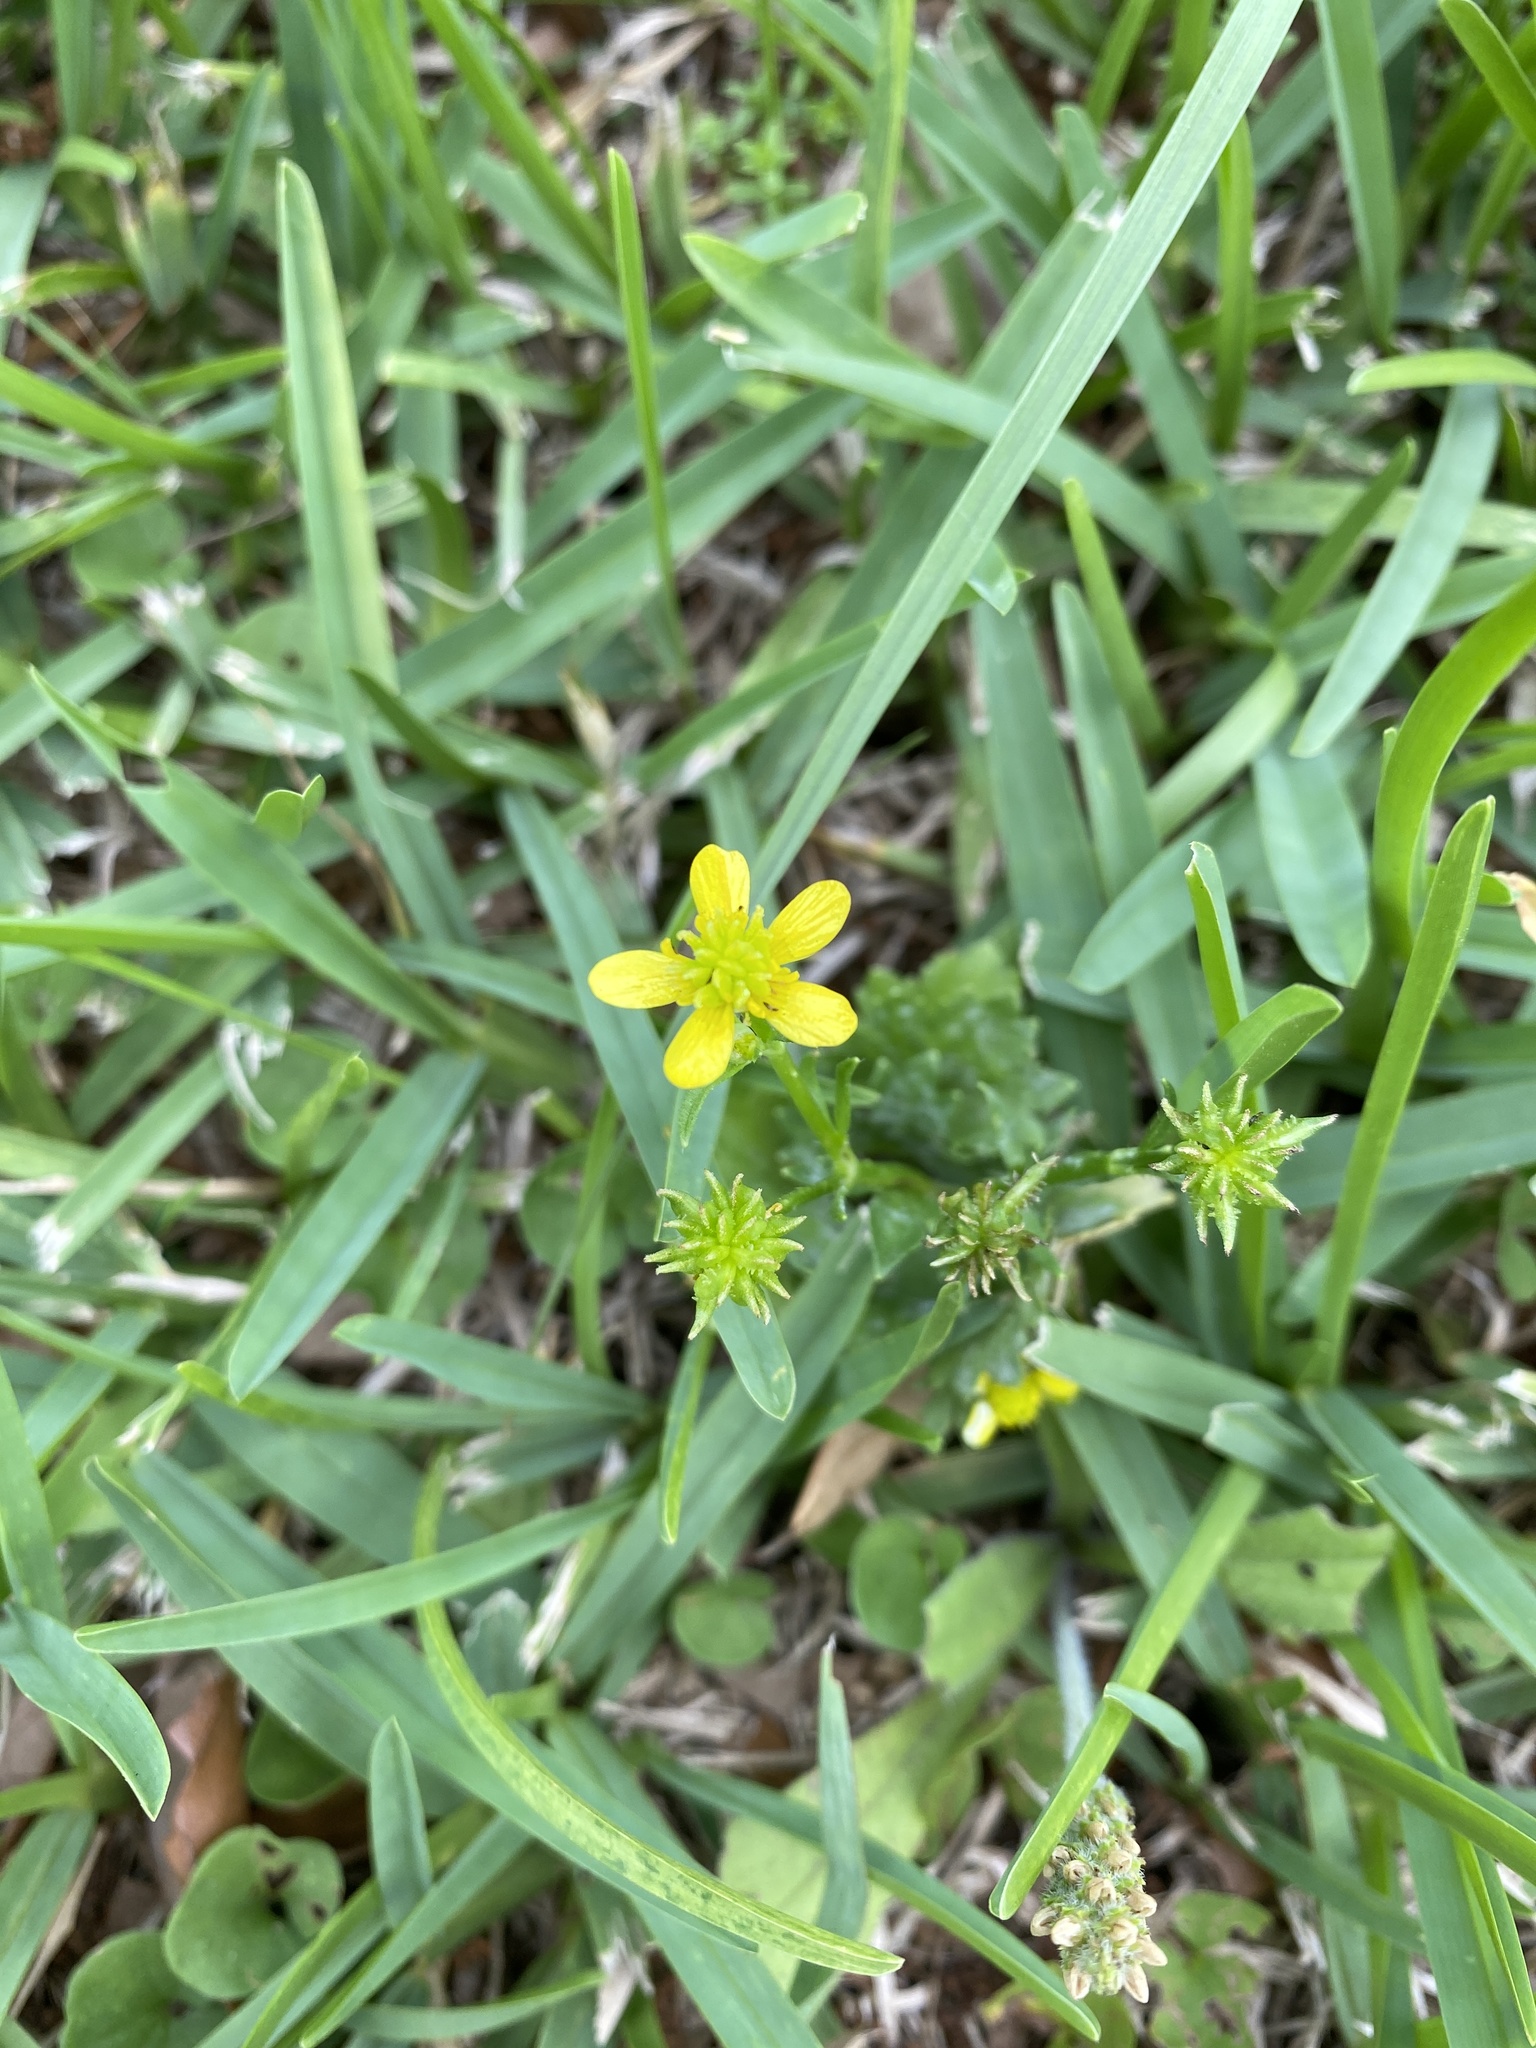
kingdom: Plantae
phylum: Tracheophyta
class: Magnoliopsida
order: Ranunculales
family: Ranunculaceae
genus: Ranunculus
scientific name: Ranunculus muricatus
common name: Rough-fruited buttercup
